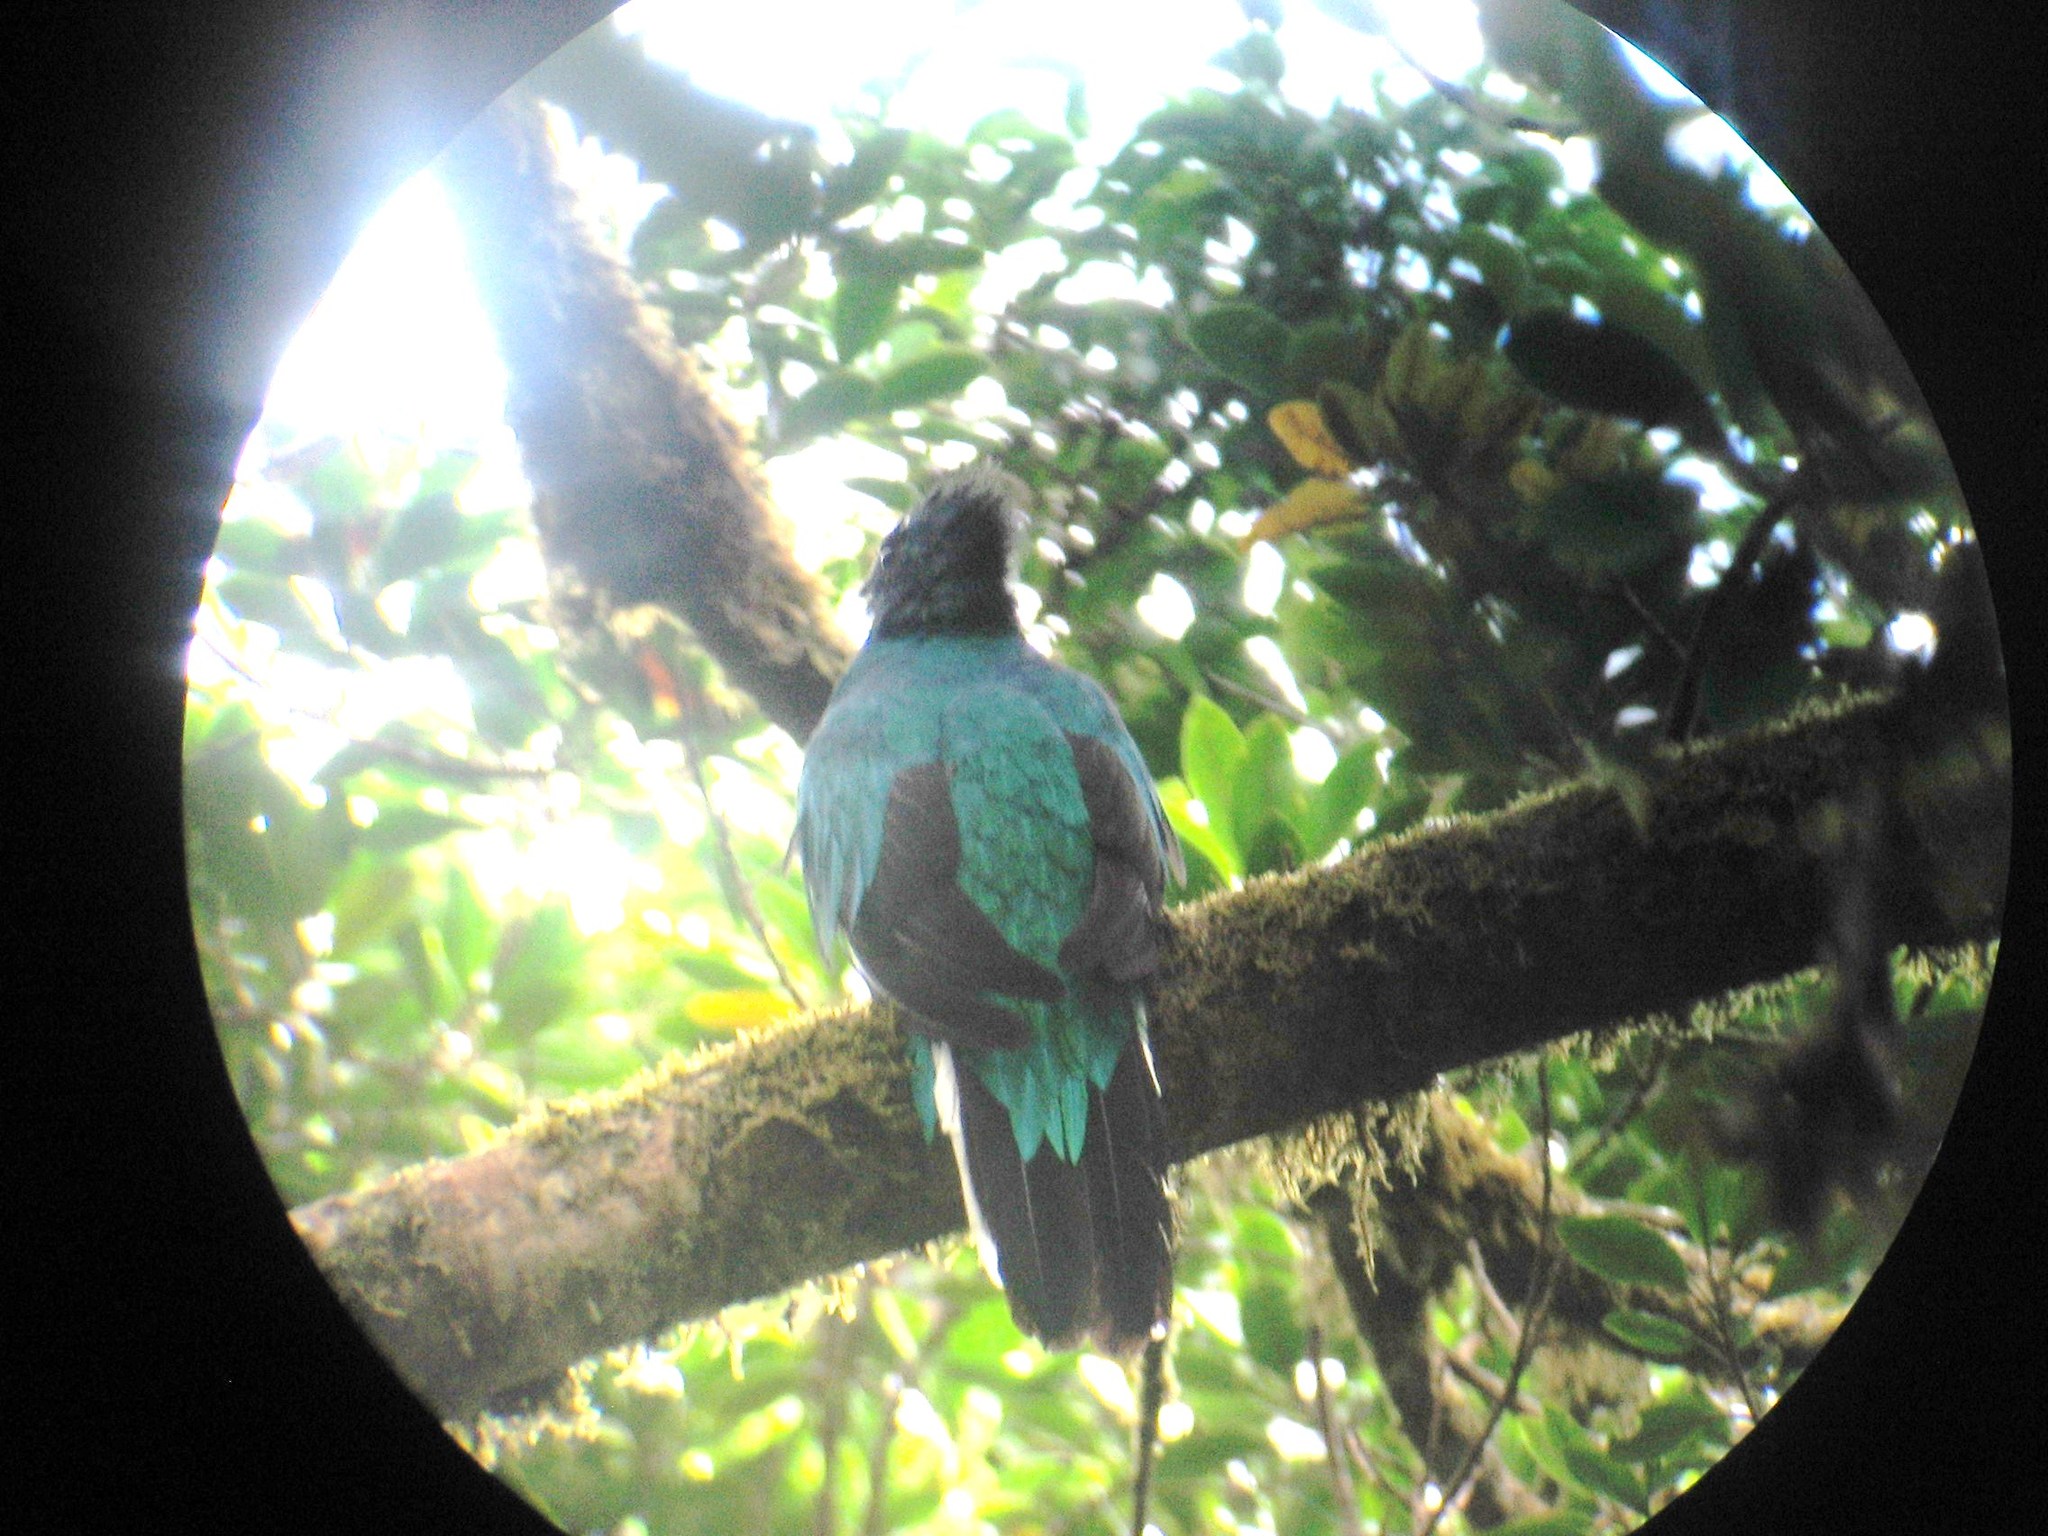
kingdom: Animalia
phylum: Chordata
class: Aves
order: Trogoniformes
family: Trogonidae
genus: Pharomachrus
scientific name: Pharomachrus mocinno
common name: Resplendent quetzal
